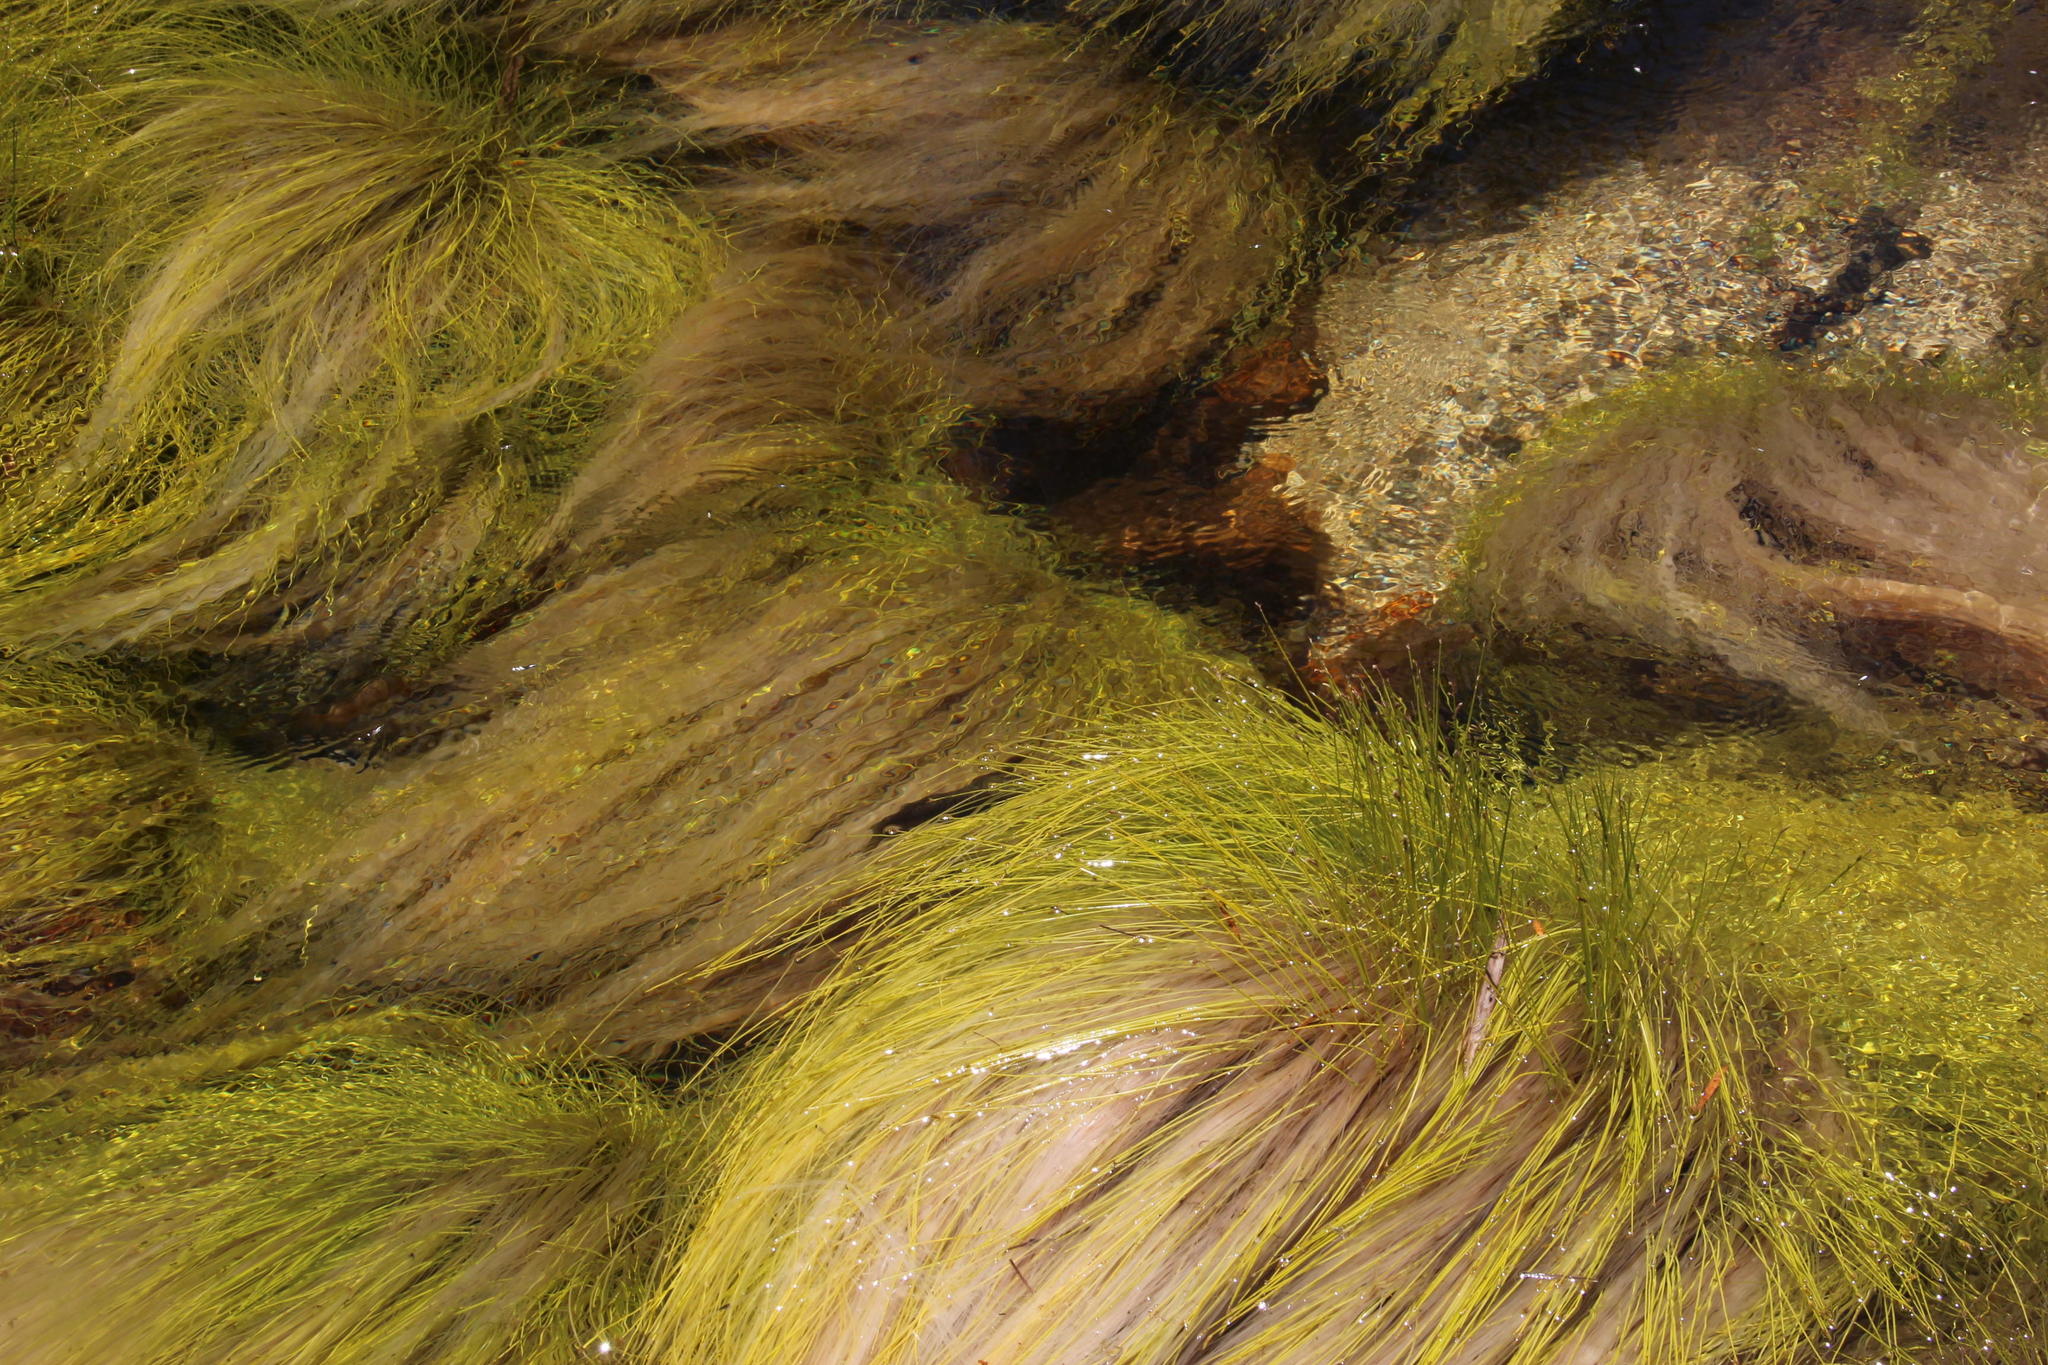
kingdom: Plantae
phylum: Tracheophyta
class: Liliopsida
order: Poales
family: Cyperaceae
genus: Isolepis
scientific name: Isolepis digitata
